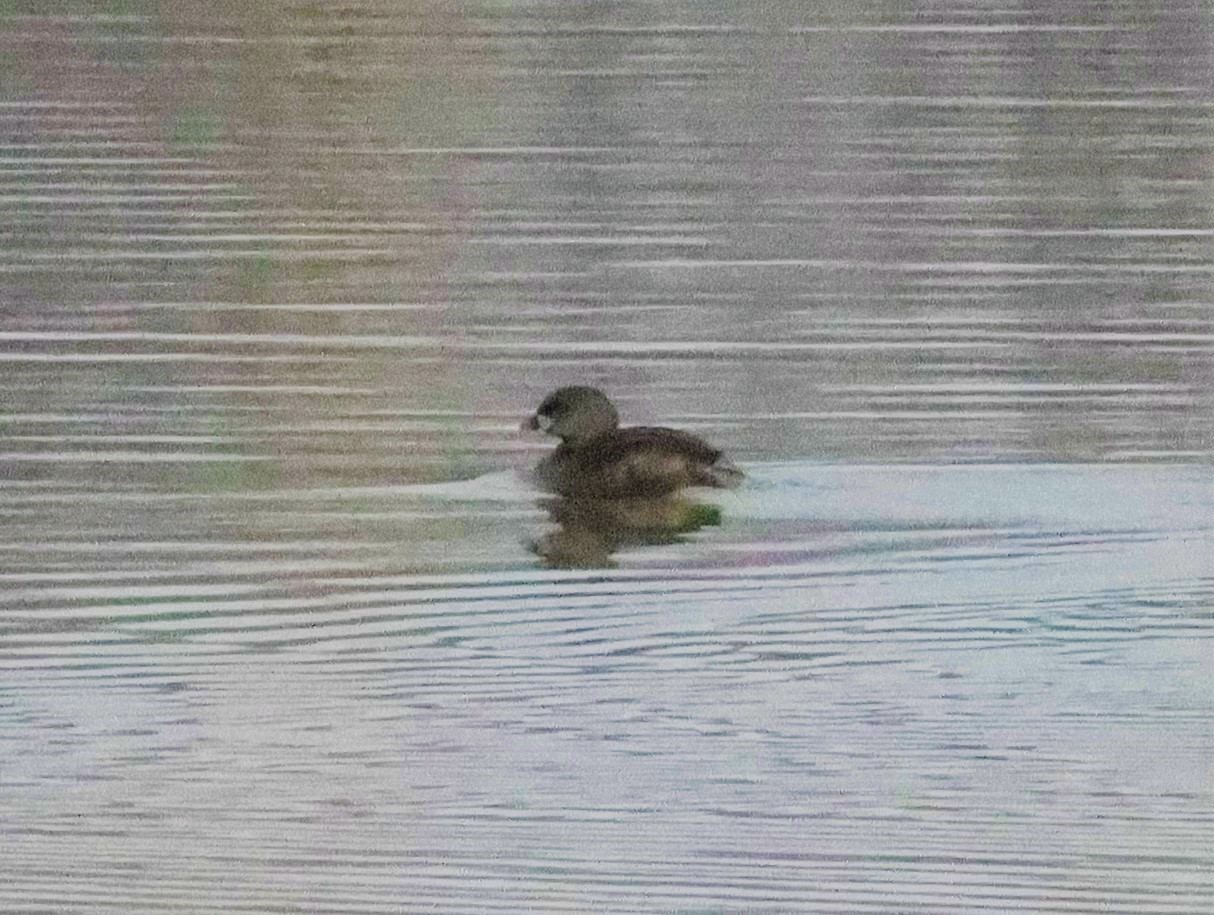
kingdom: Animalia
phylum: Chordata
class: Aves
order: Podicipediformes
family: Podicipedidae
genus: Podilymbus
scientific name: Podilymbus podiceps
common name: Pied-billed grebe
